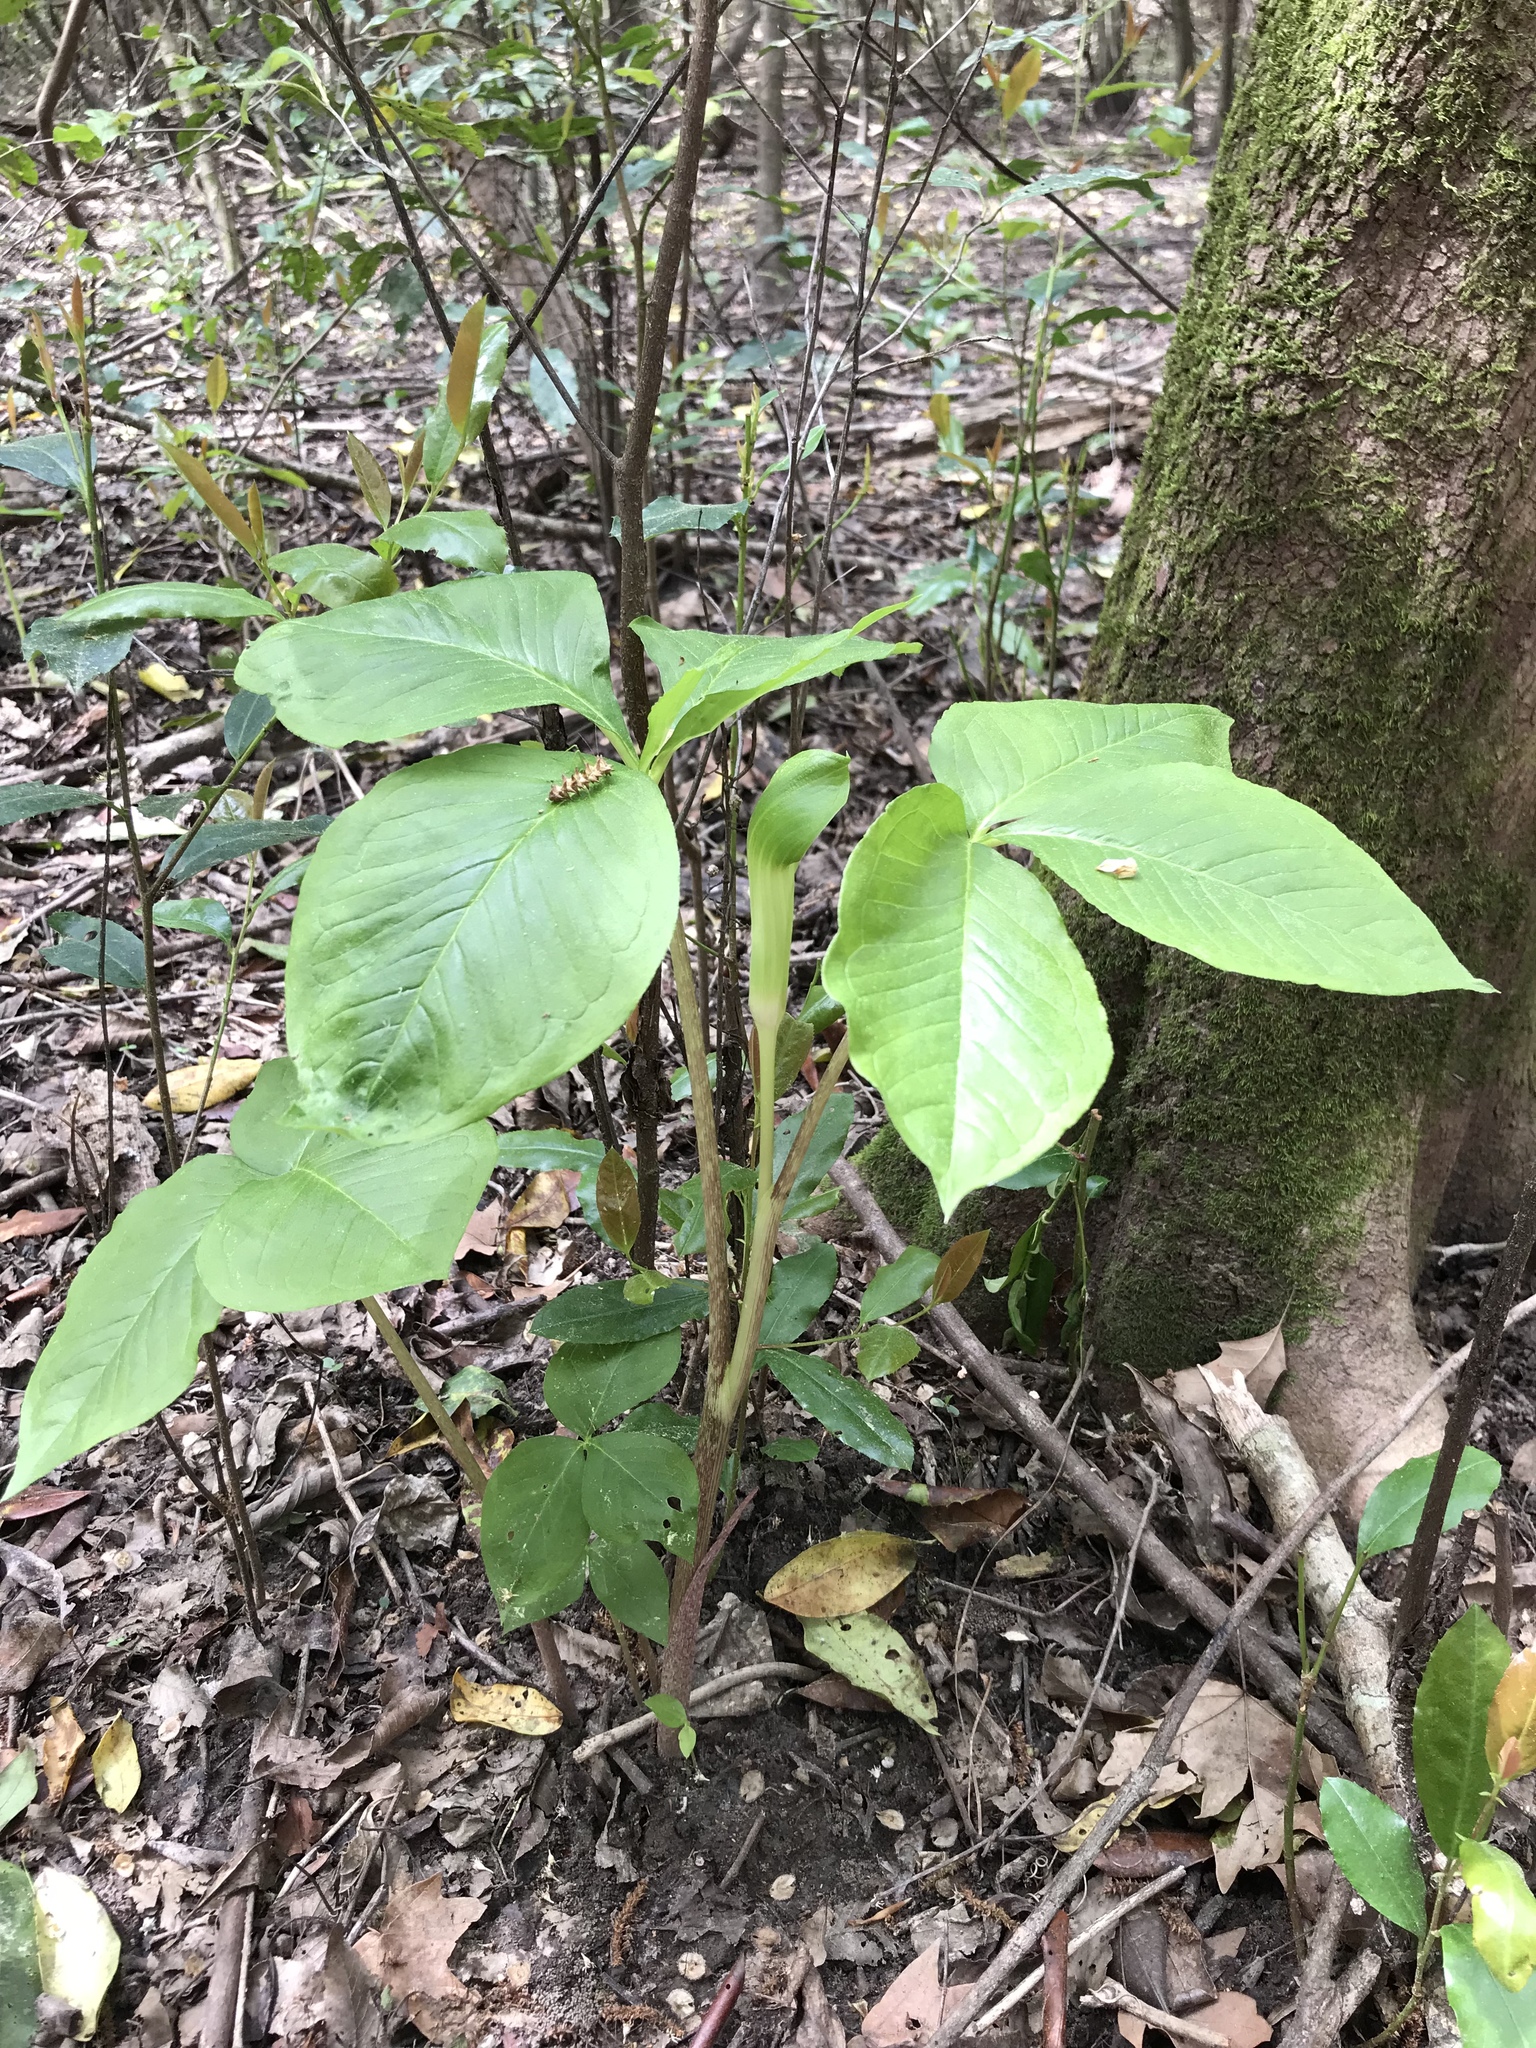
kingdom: Plantae
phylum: Tracheophyta
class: Liliopsida
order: Alismatales
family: Araceae
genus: Arisaema
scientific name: Arisaema quinatum
